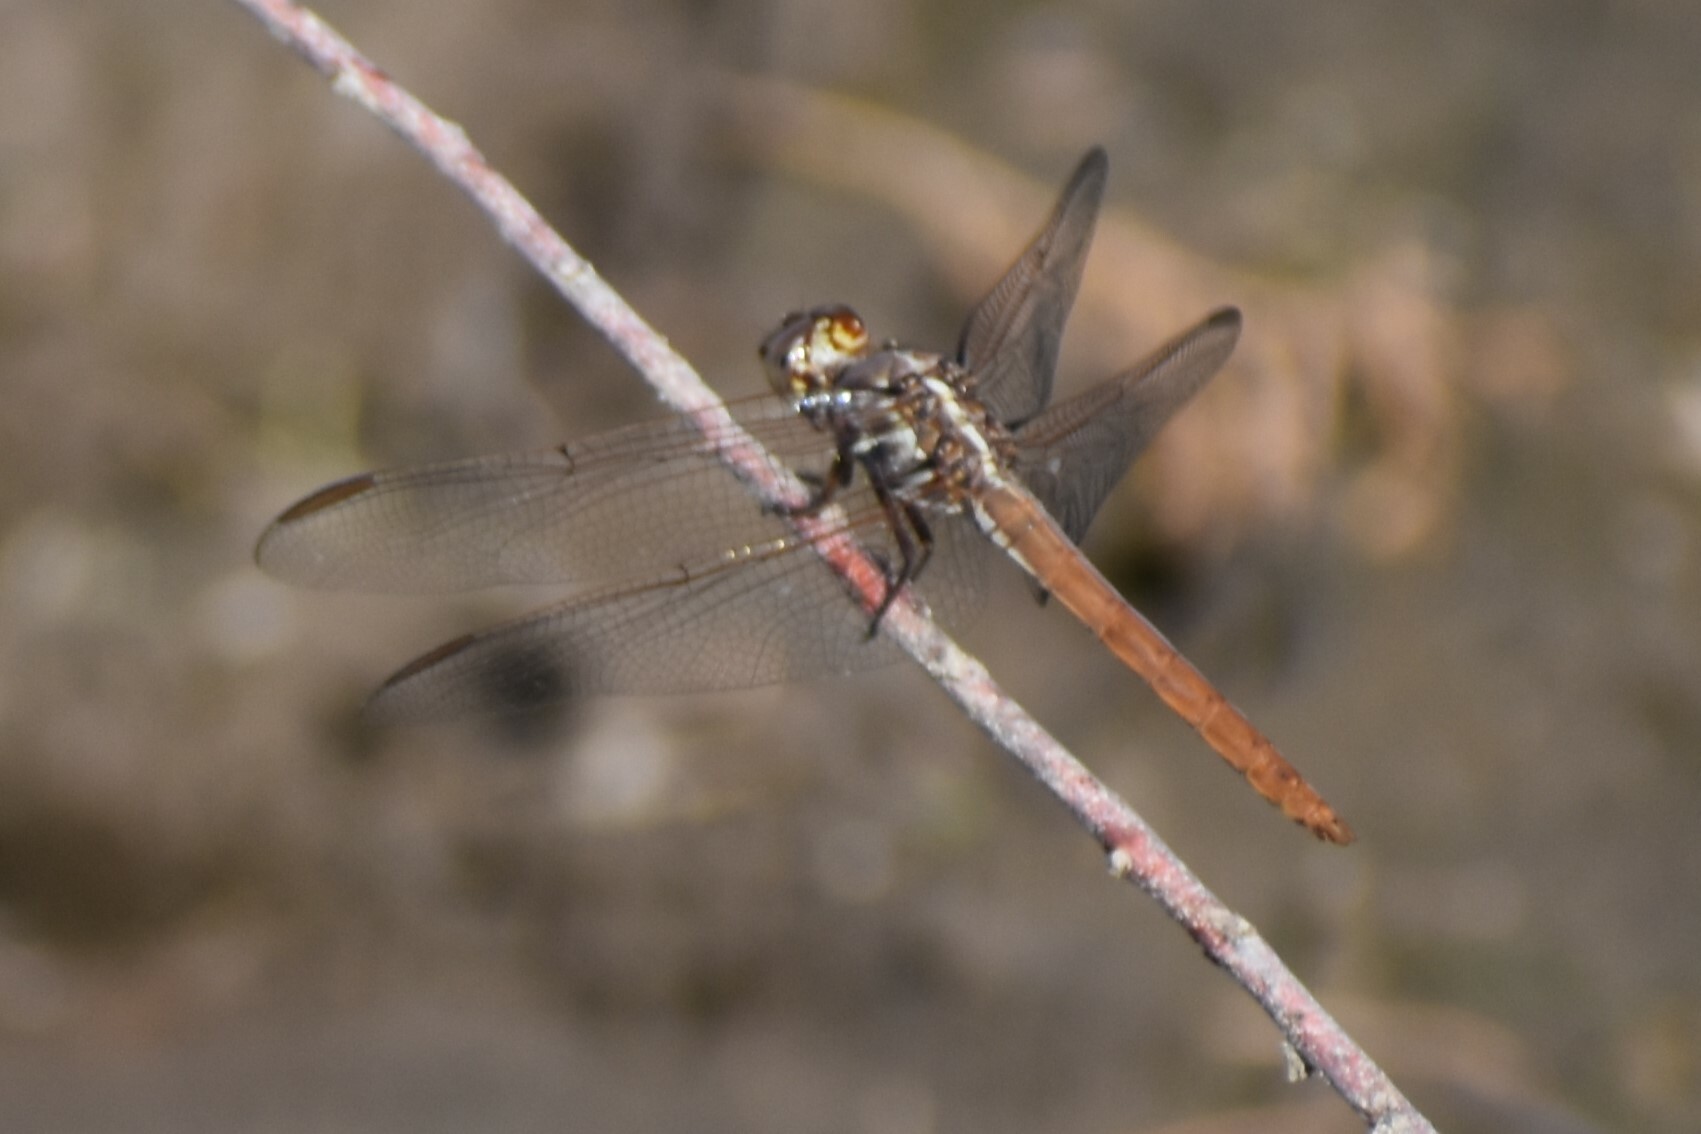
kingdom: Animalia
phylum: Arthropoda
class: Insecta
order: Odonata
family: Libellulidae
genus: Orthemis
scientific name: Orthemis ferruginea
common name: Roseate skimmer
